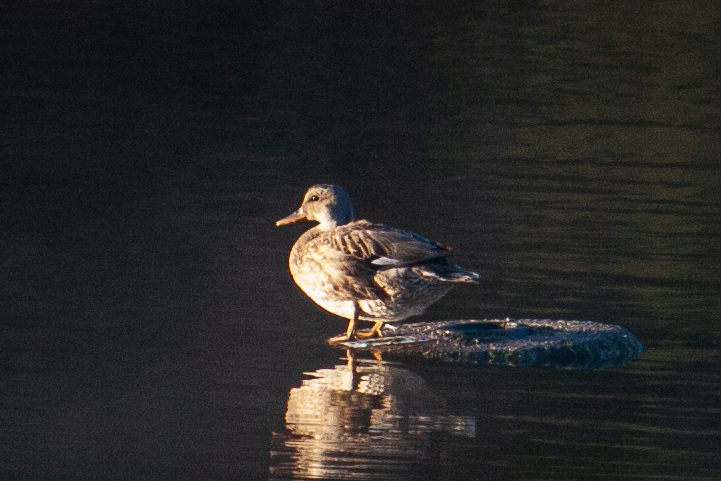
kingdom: Animalia
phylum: Chordata
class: Aves
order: Anseriformes
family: Anatidae
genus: Mareca
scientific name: Mareca strepera
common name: Gadwall
